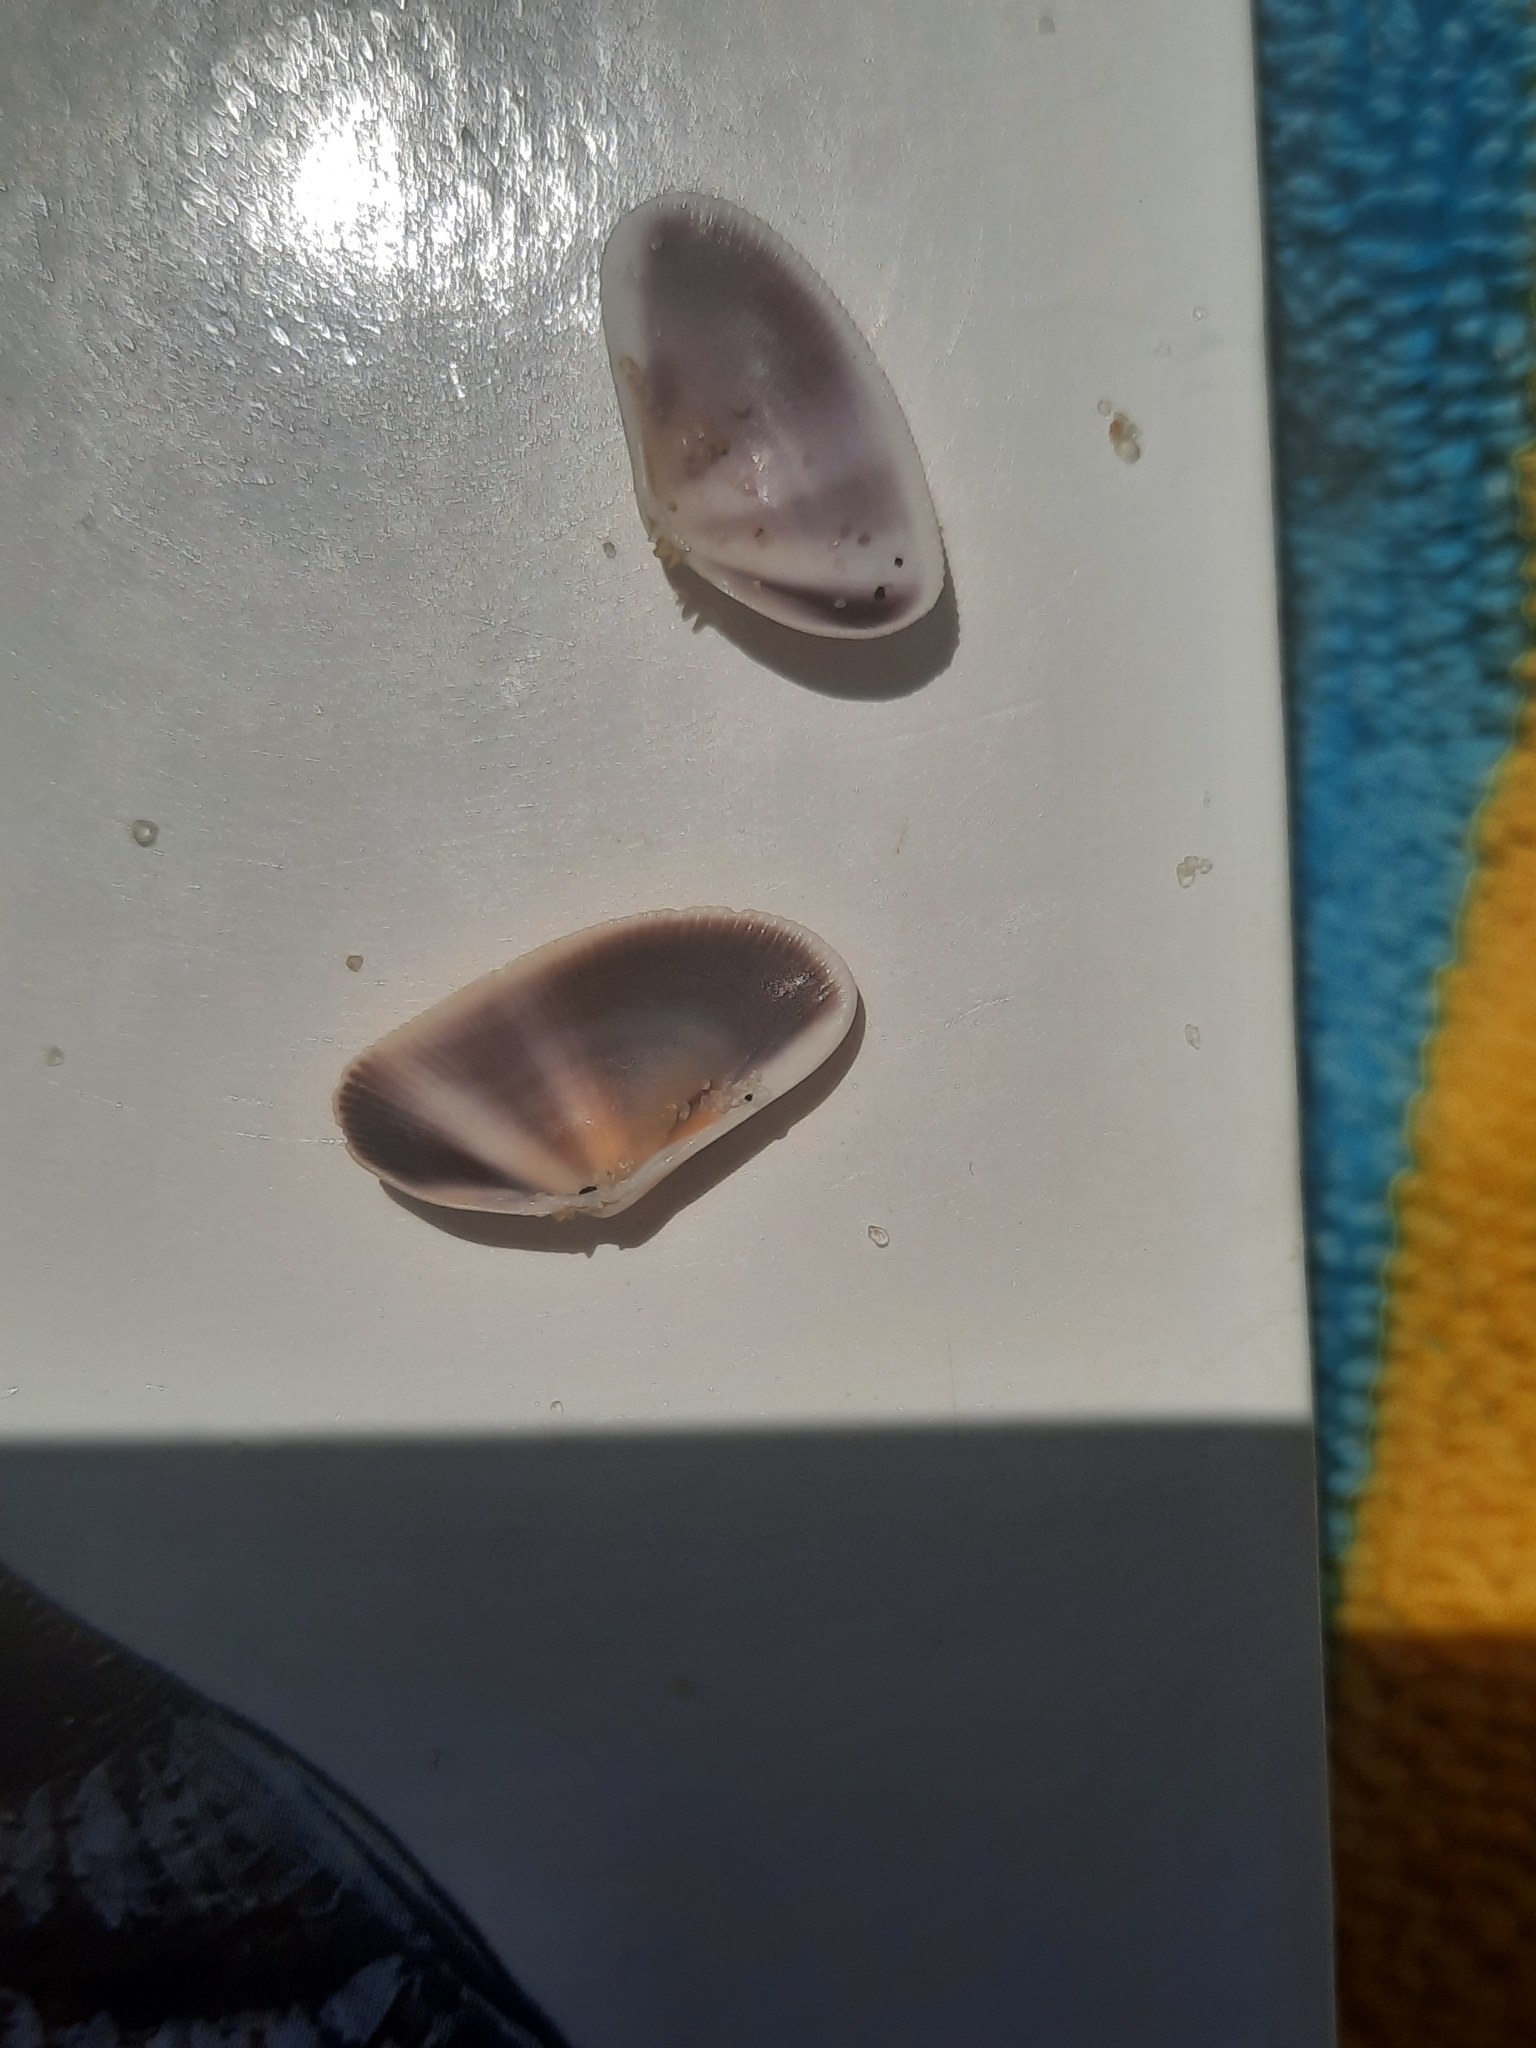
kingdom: Animalia
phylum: Mollusca
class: Bivalvia
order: Cardiida
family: Donacidae
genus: Donax
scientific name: Donax fossor
